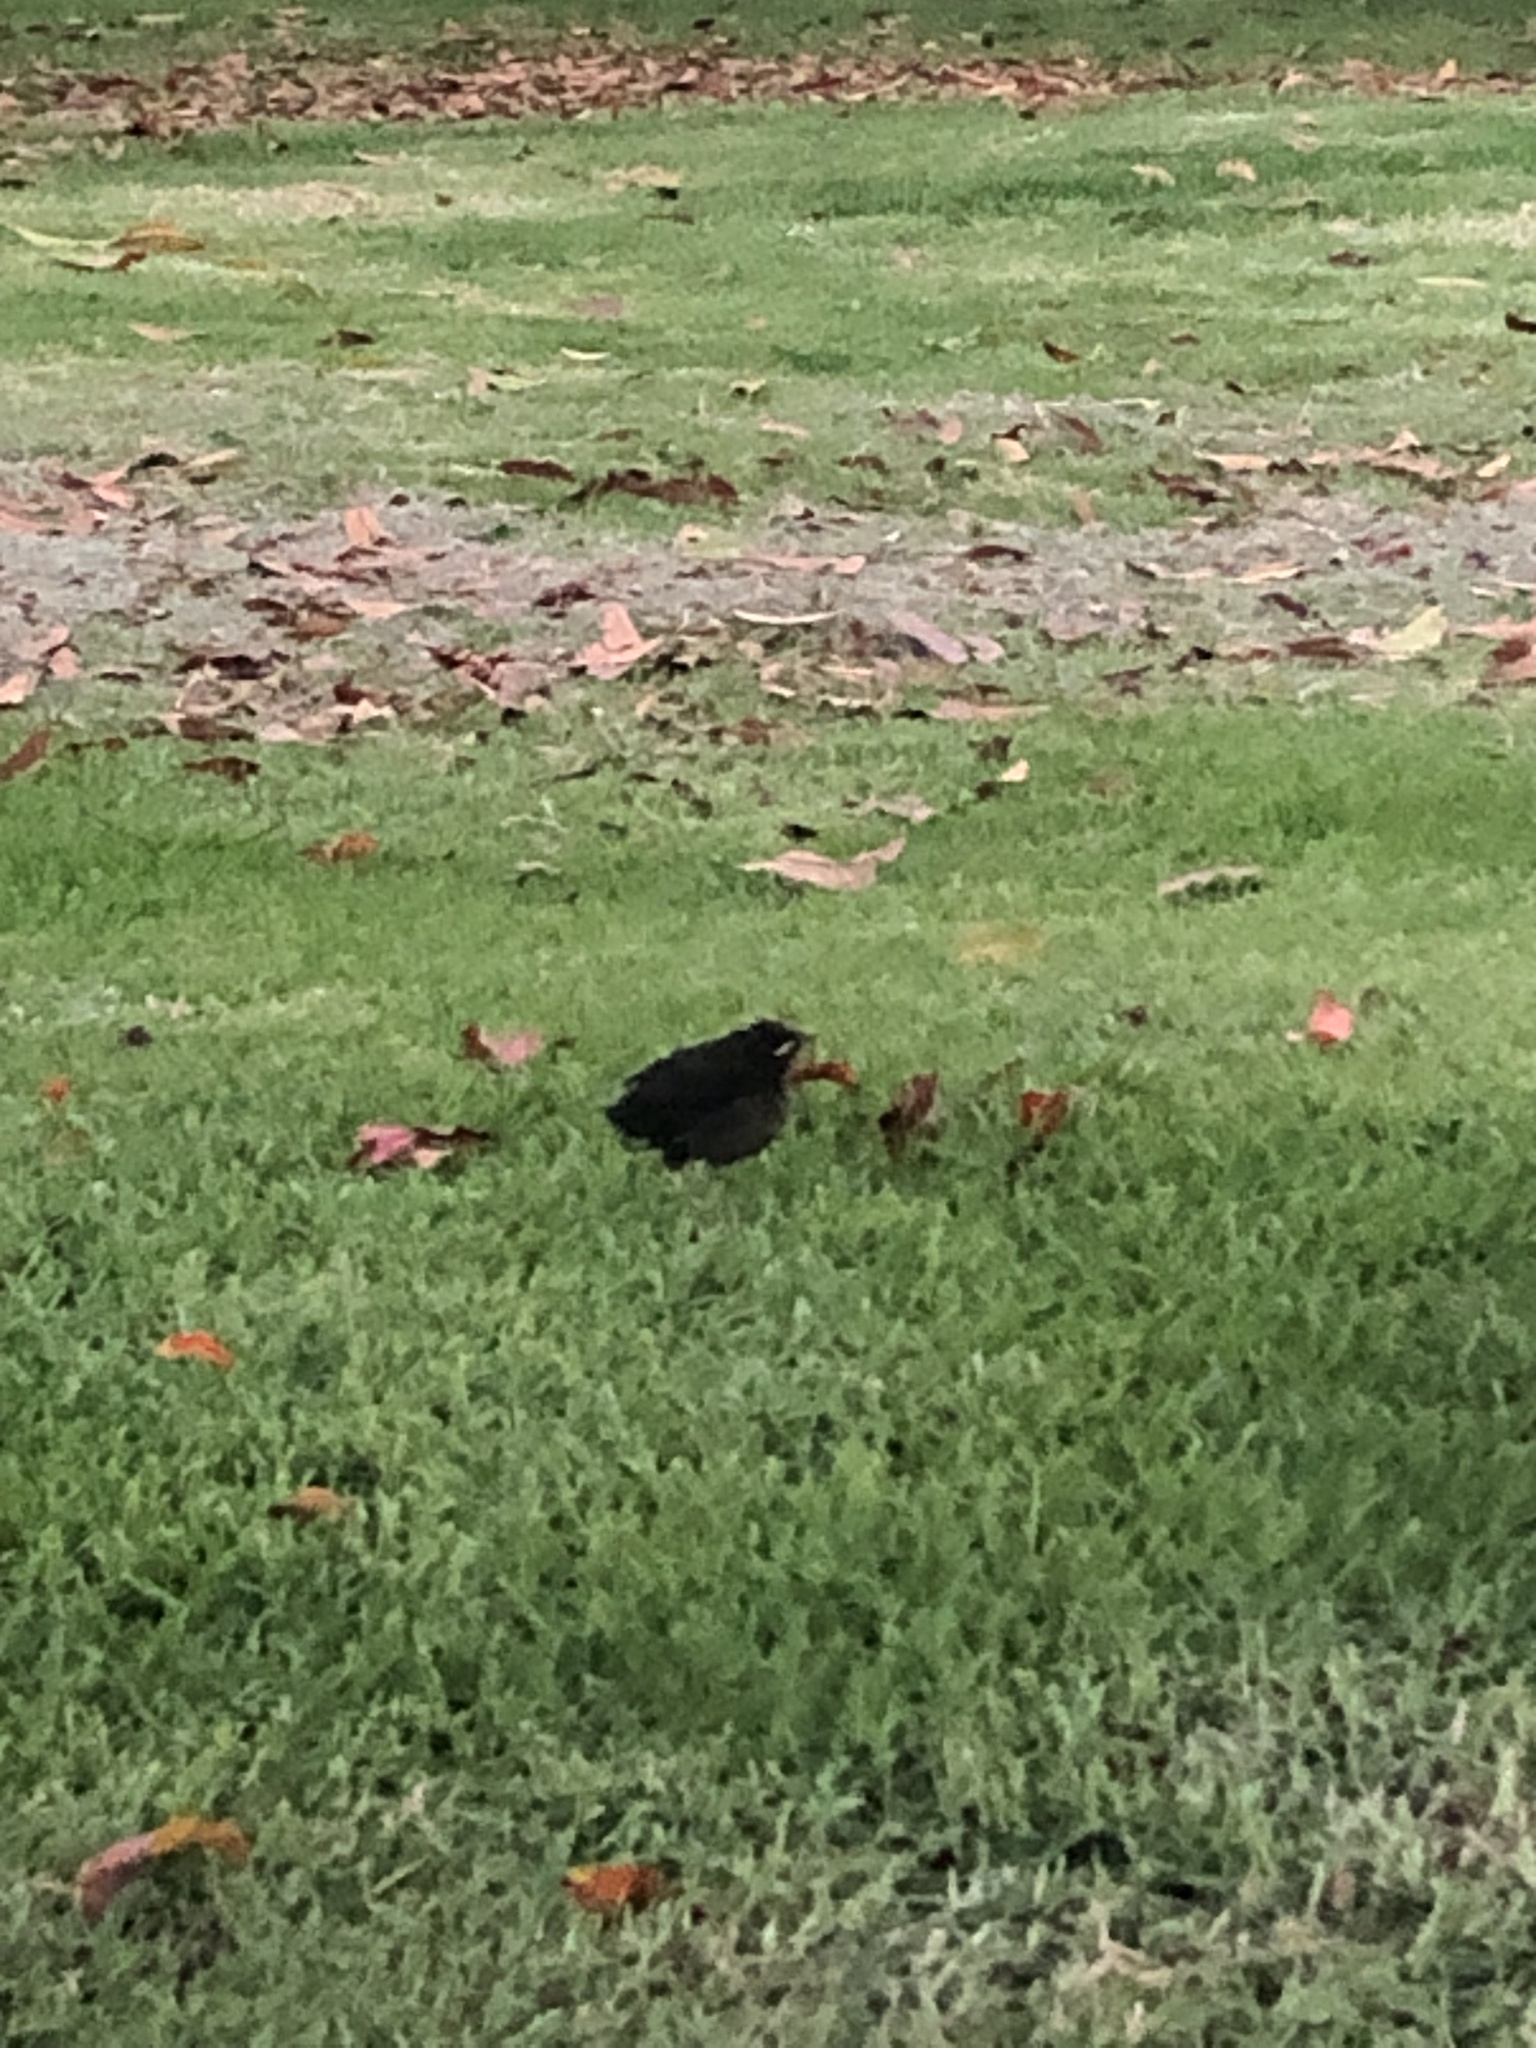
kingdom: Animalia
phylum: Chordata
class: Aves
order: Passeriformes
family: Turdidae
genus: Turdus
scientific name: Turdus fuscater
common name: Great thrush
